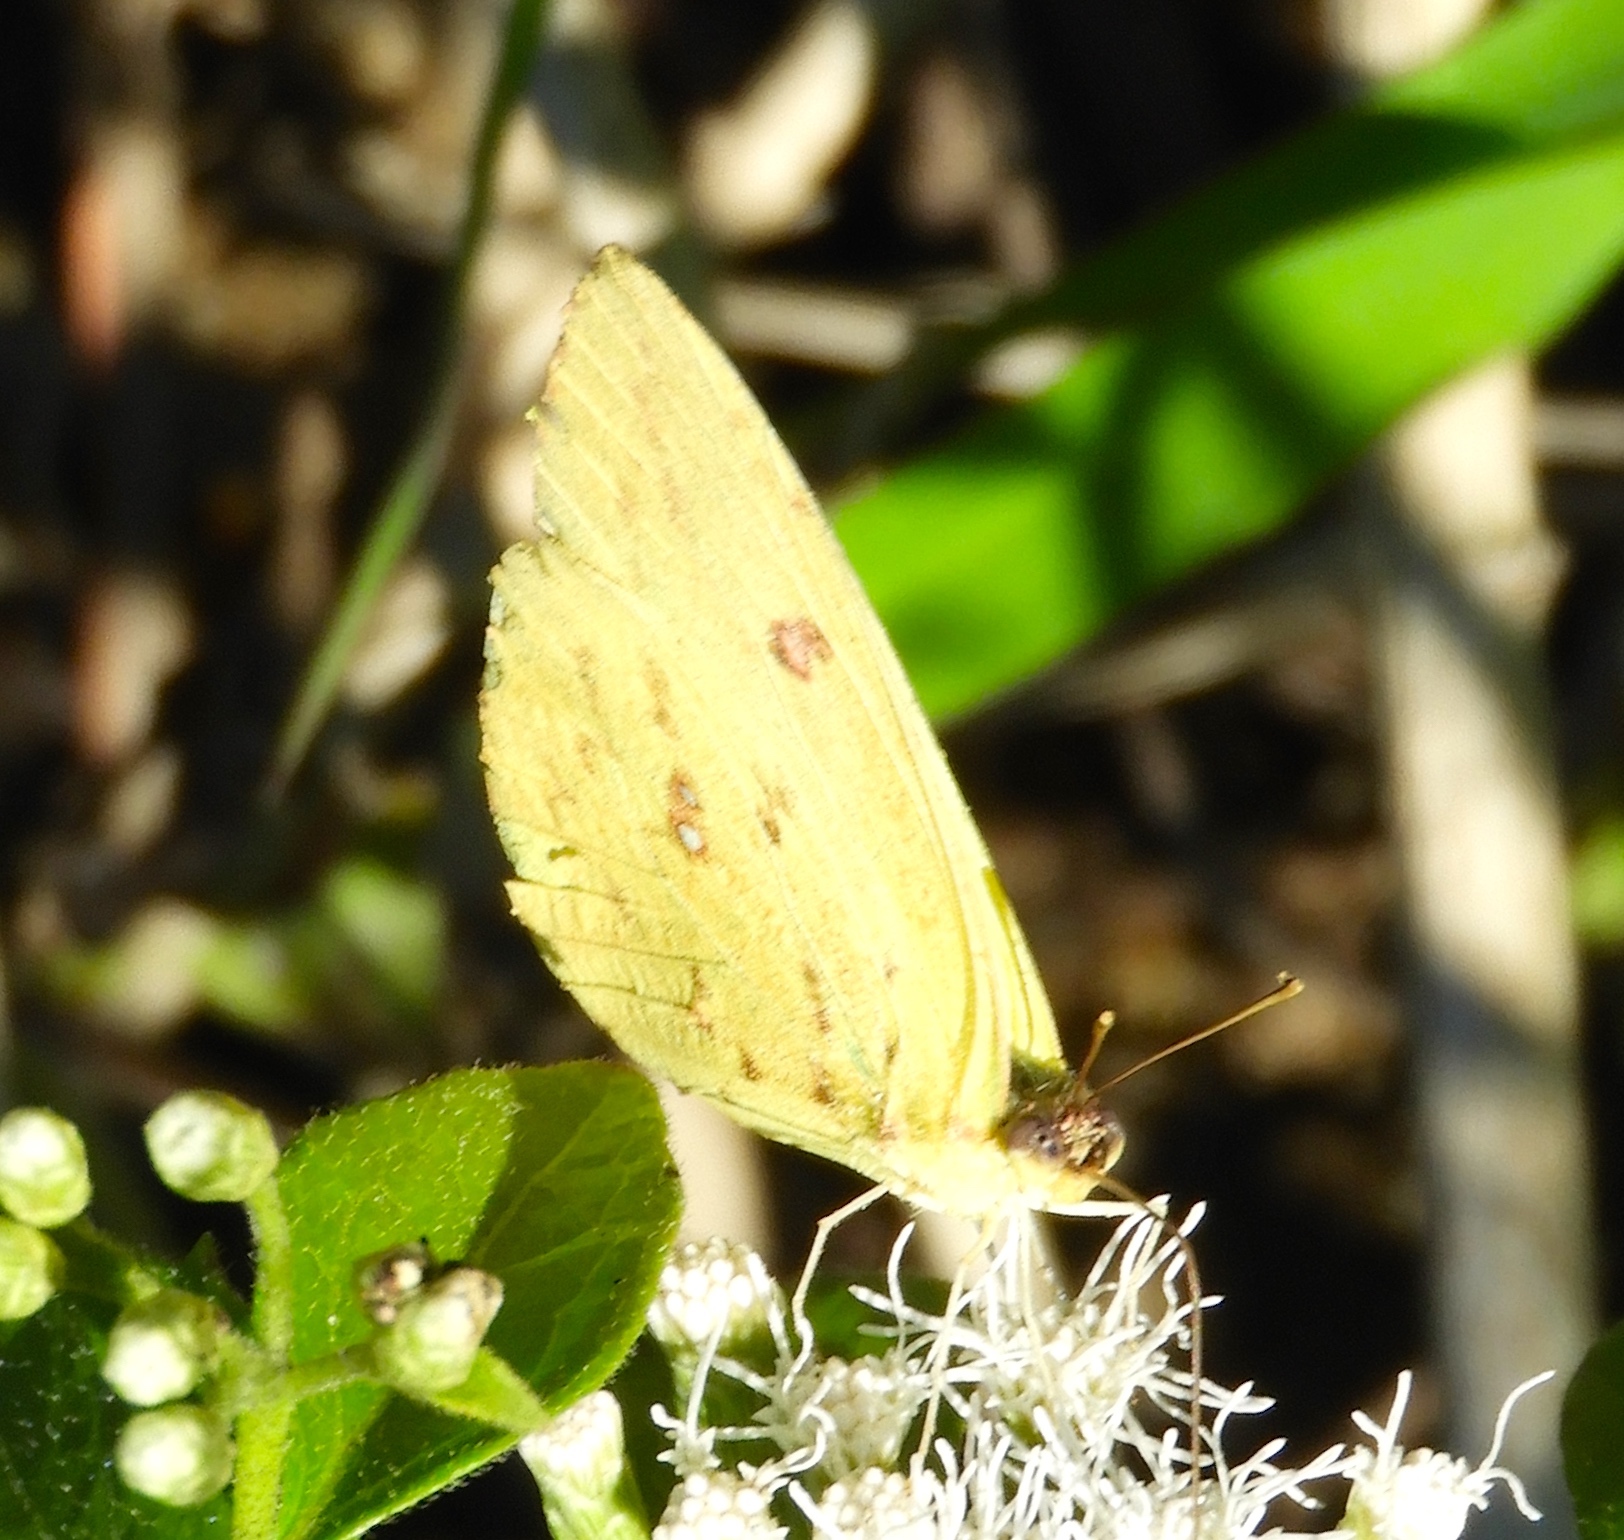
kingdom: Animalia
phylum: Arthropoda
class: Insecta
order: Lepidoptera
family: Pieridae
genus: Phoebis
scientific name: Phoebis sennae
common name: Cloudless sulphur
